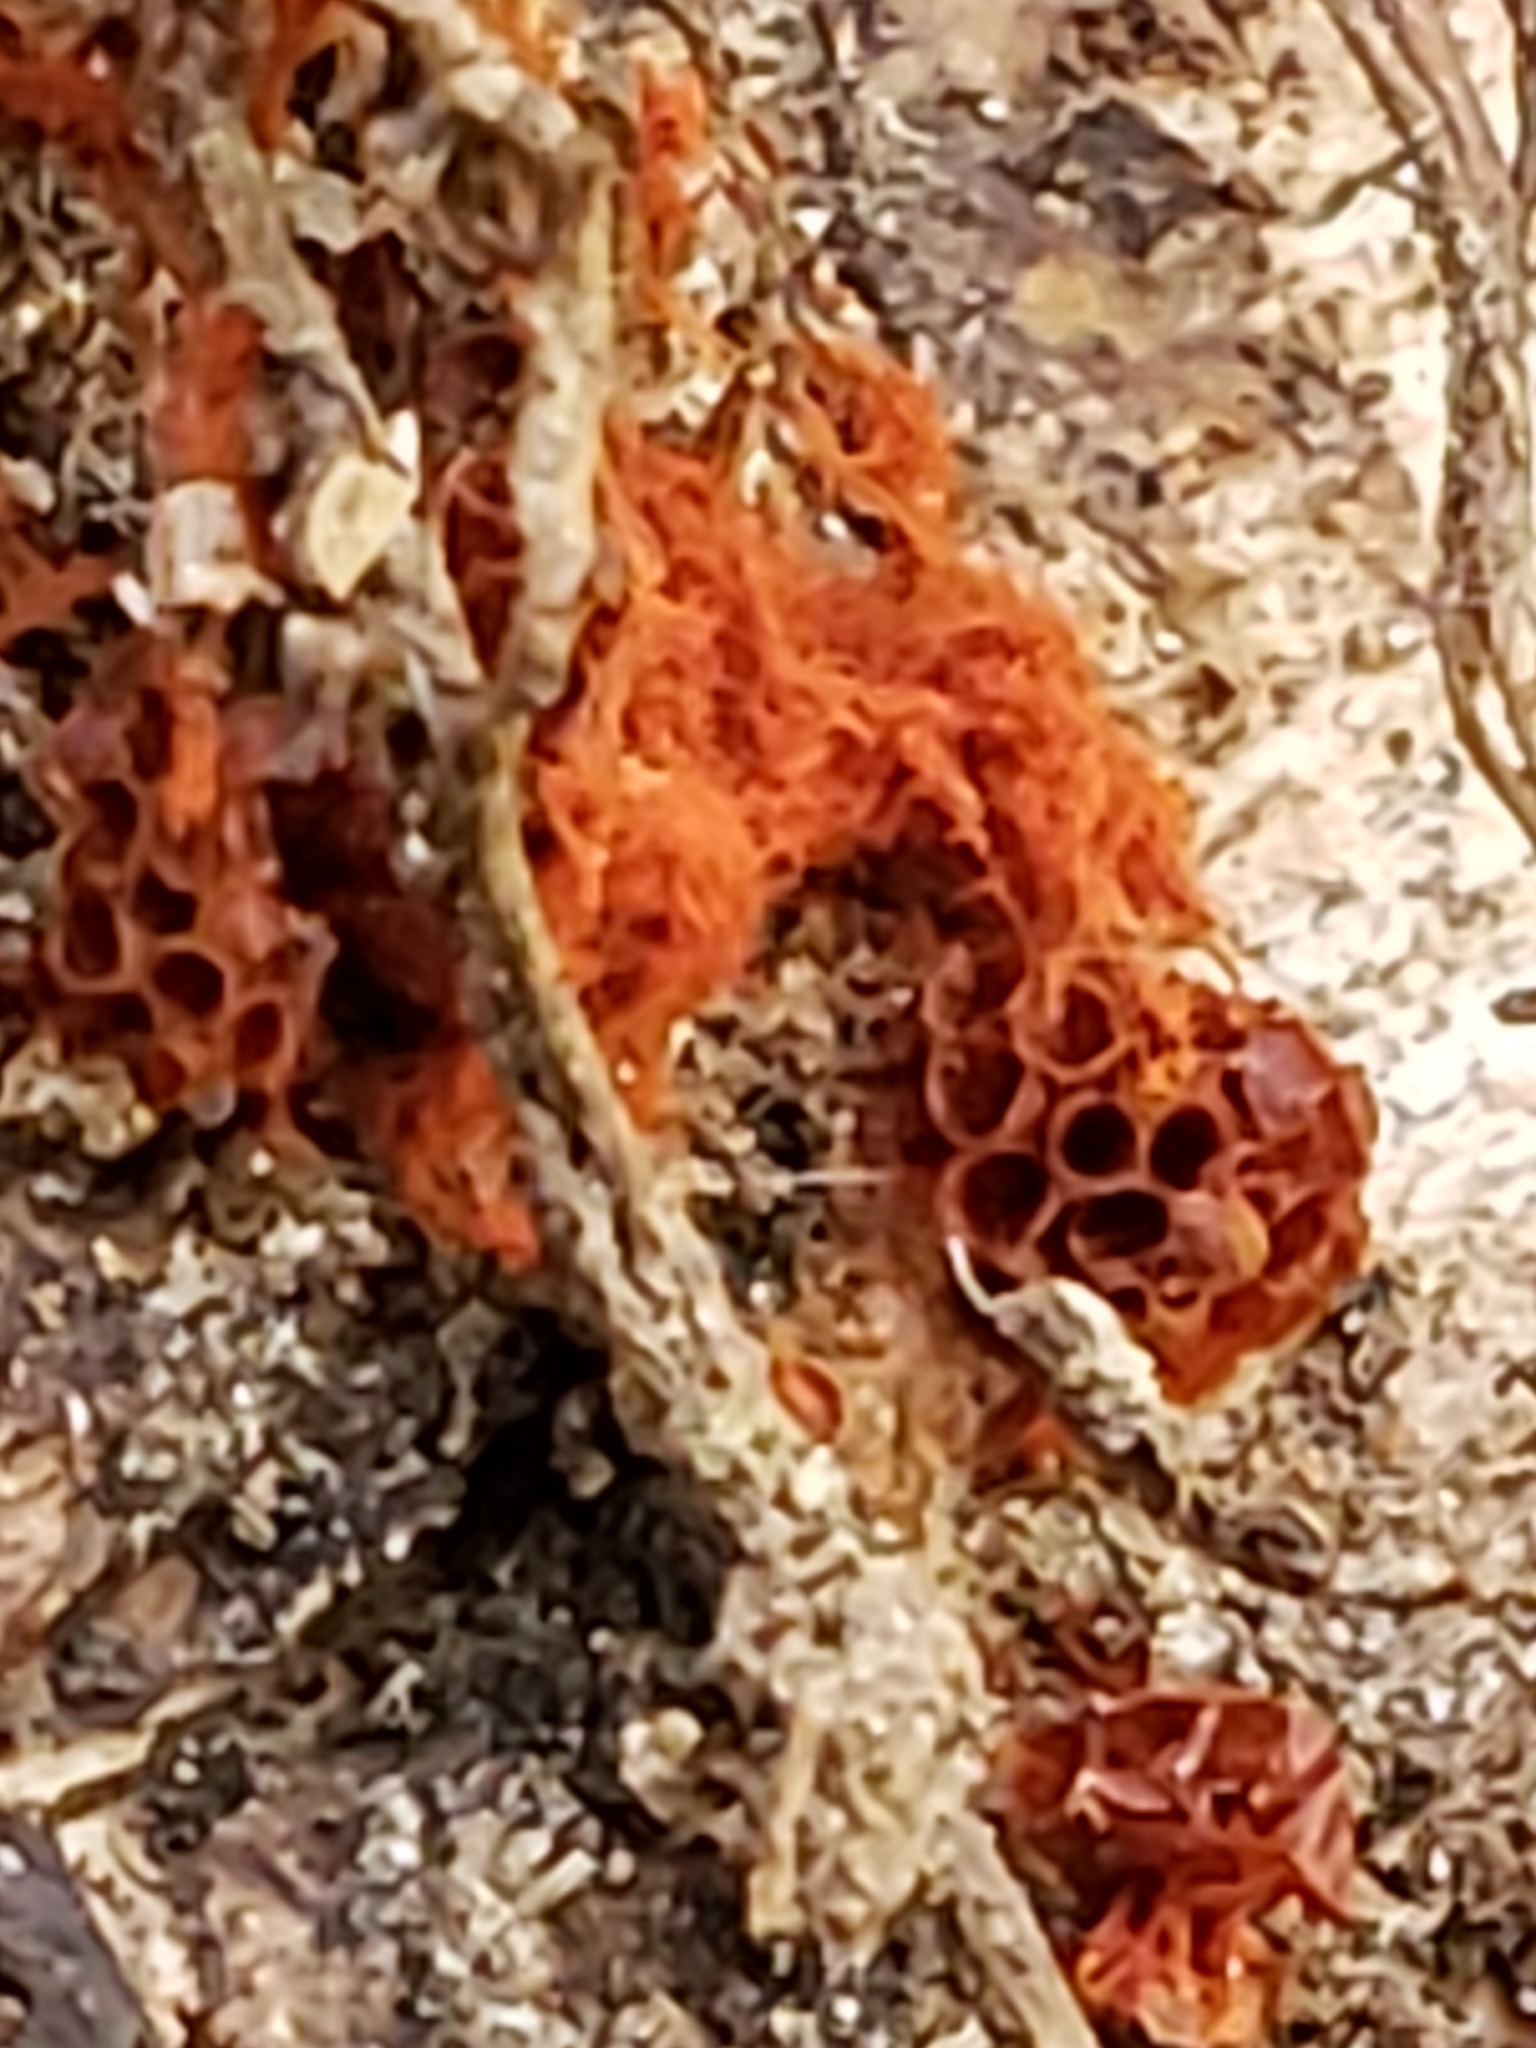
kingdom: Protozoa
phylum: Mycetozoa
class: Myxomycetes
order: Trichiales
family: Trichiaceae
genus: Metatrichia
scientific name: Metatrichia vesparia
